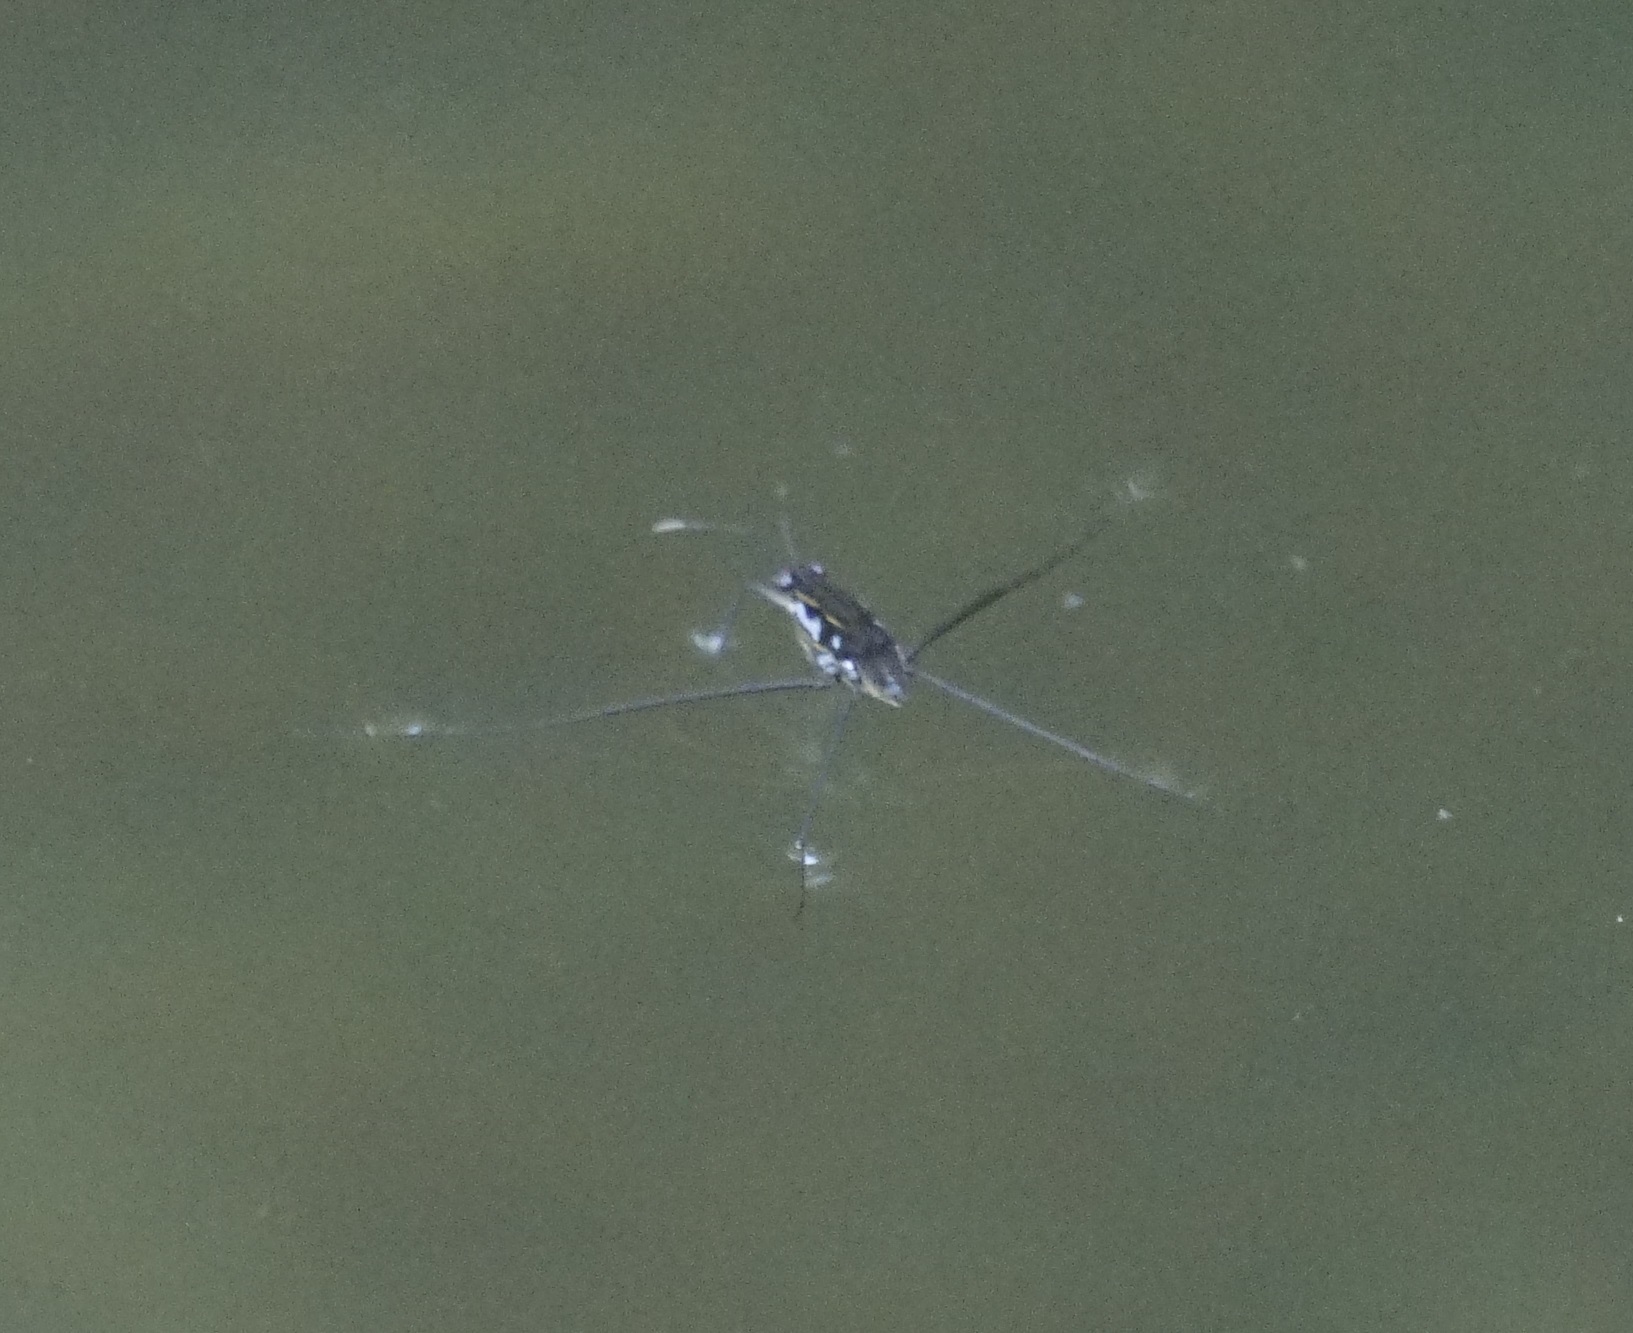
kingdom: Animalia
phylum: Arthropoda
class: Insecta
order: Hemiptera
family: Gerridae
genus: Tenagogerris
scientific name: Tenagogerris euphrosyne
